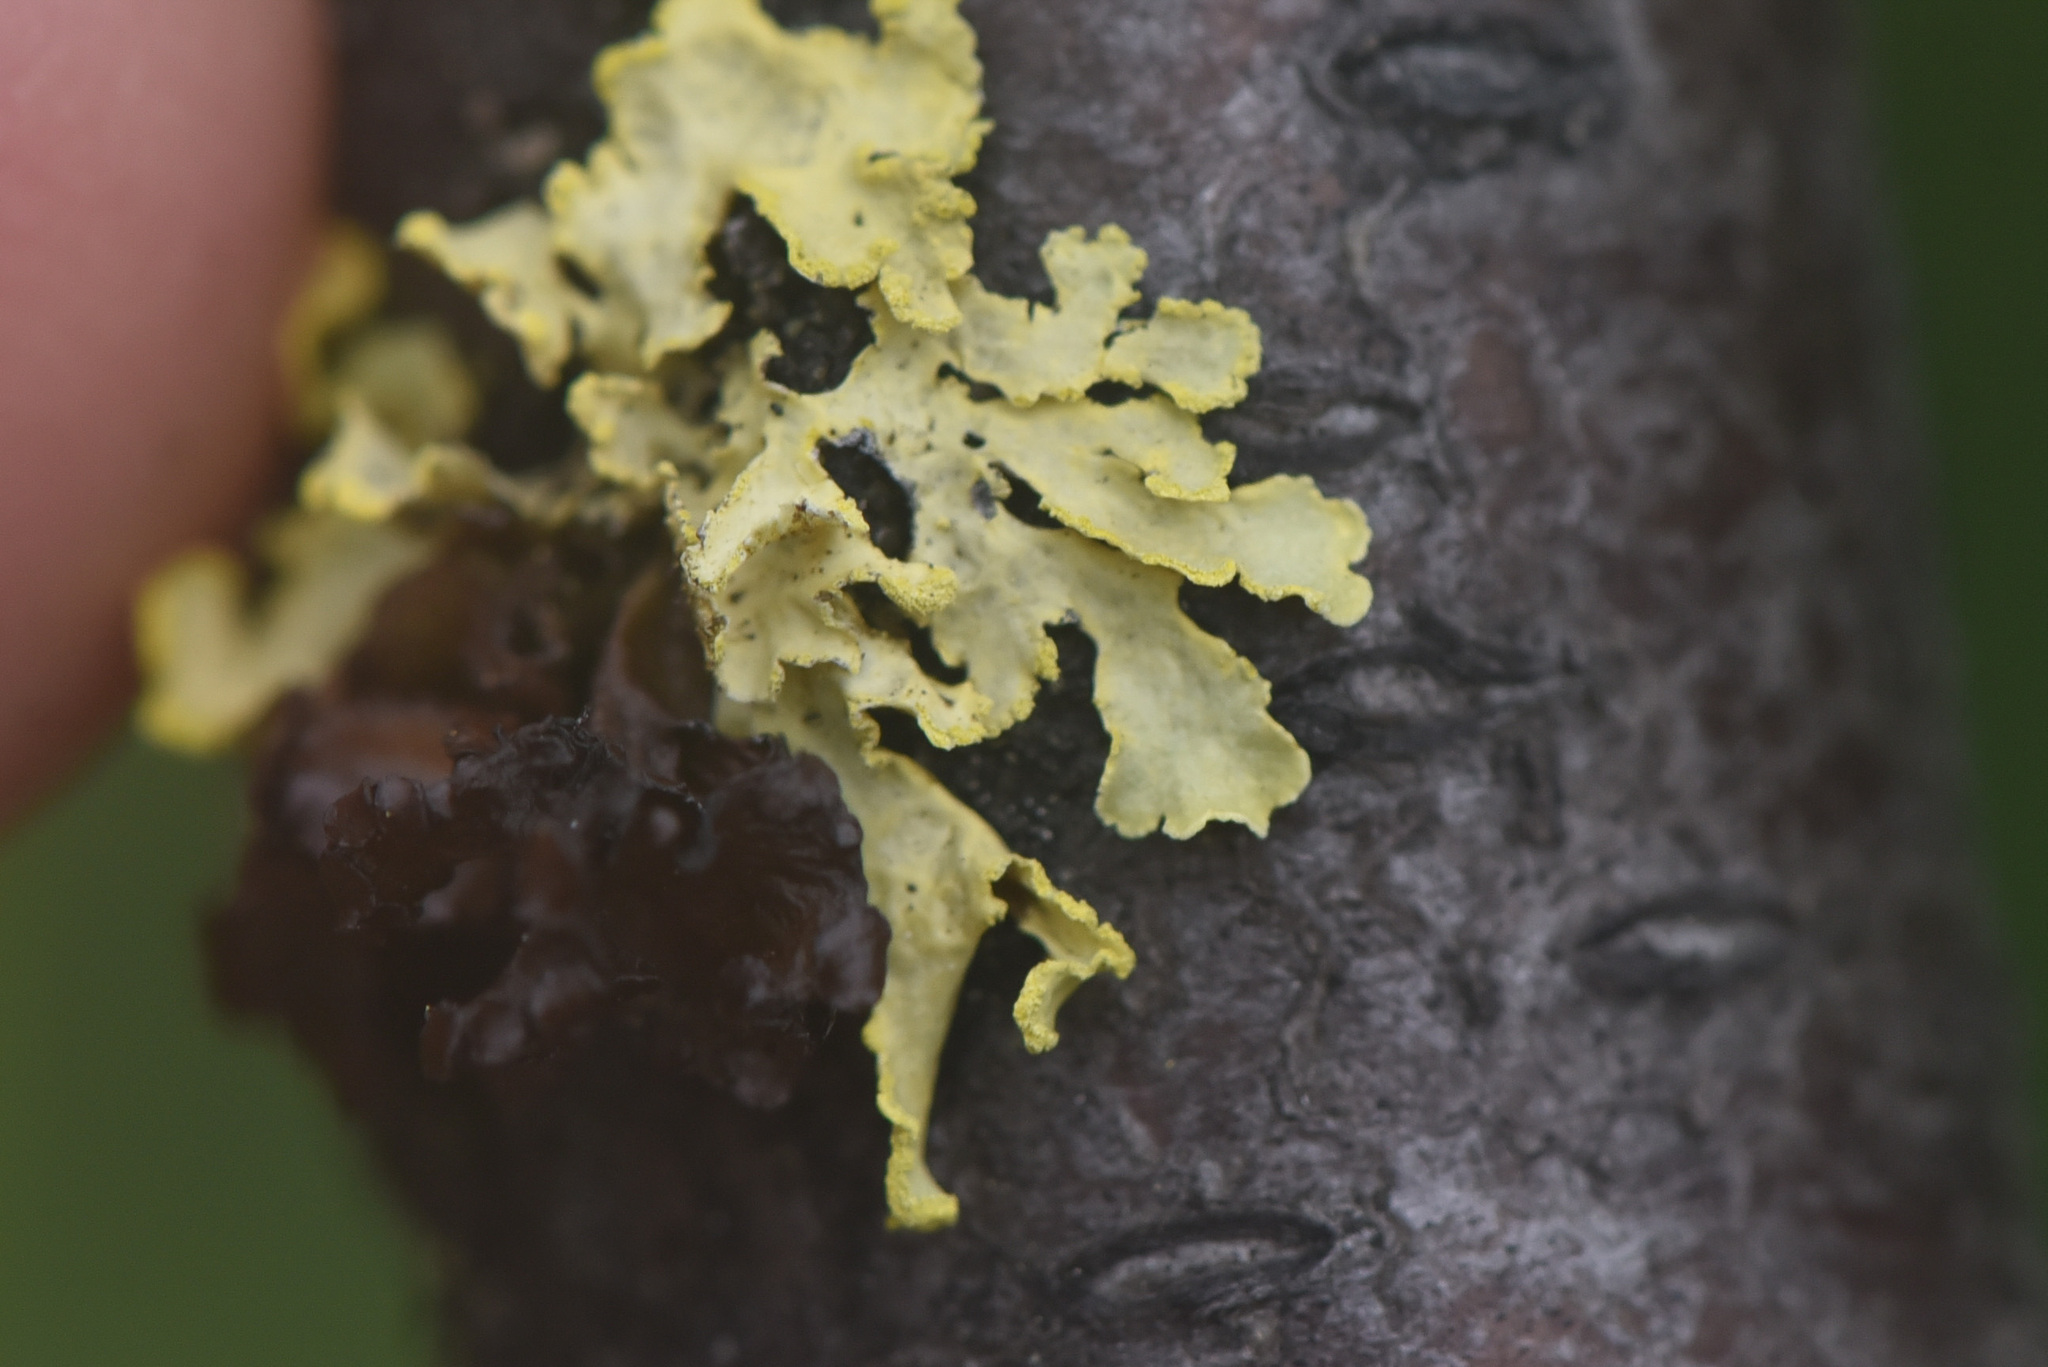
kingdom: Fungi
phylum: Ascomycota
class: Lecanoromycetes
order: Lecanorales
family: Parmeliaceae
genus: Vulpicida
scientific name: Vulpicida pinastri
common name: Powdered sunshine lichen
